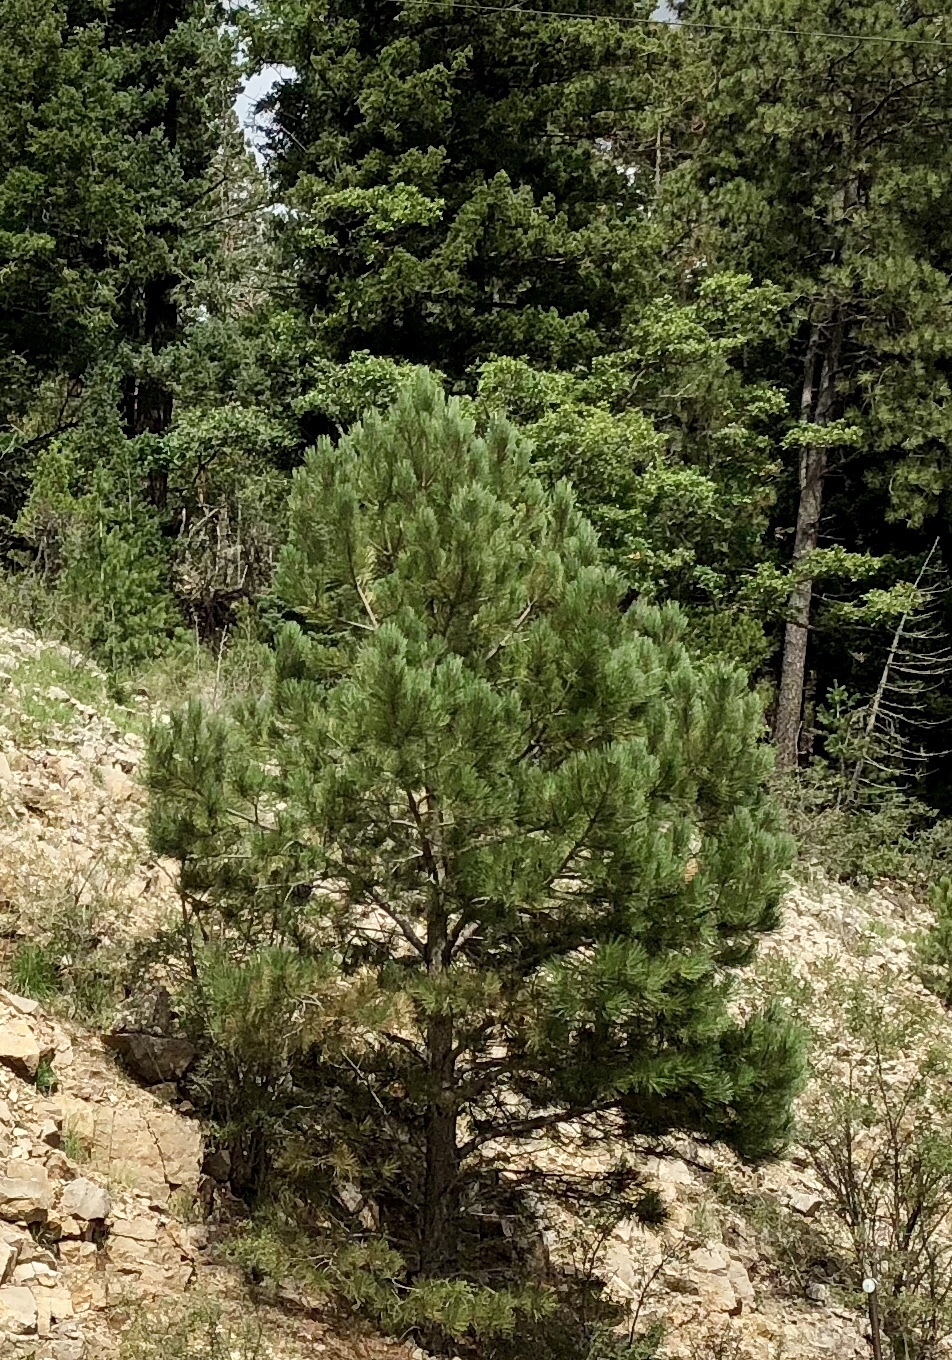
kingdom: Plantae
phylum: Tracheophyta
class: Pinopsida
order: Pinales
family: Pinaceae
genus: Pinus
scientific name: Pinus ponderosa
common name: Western yellow-pine
